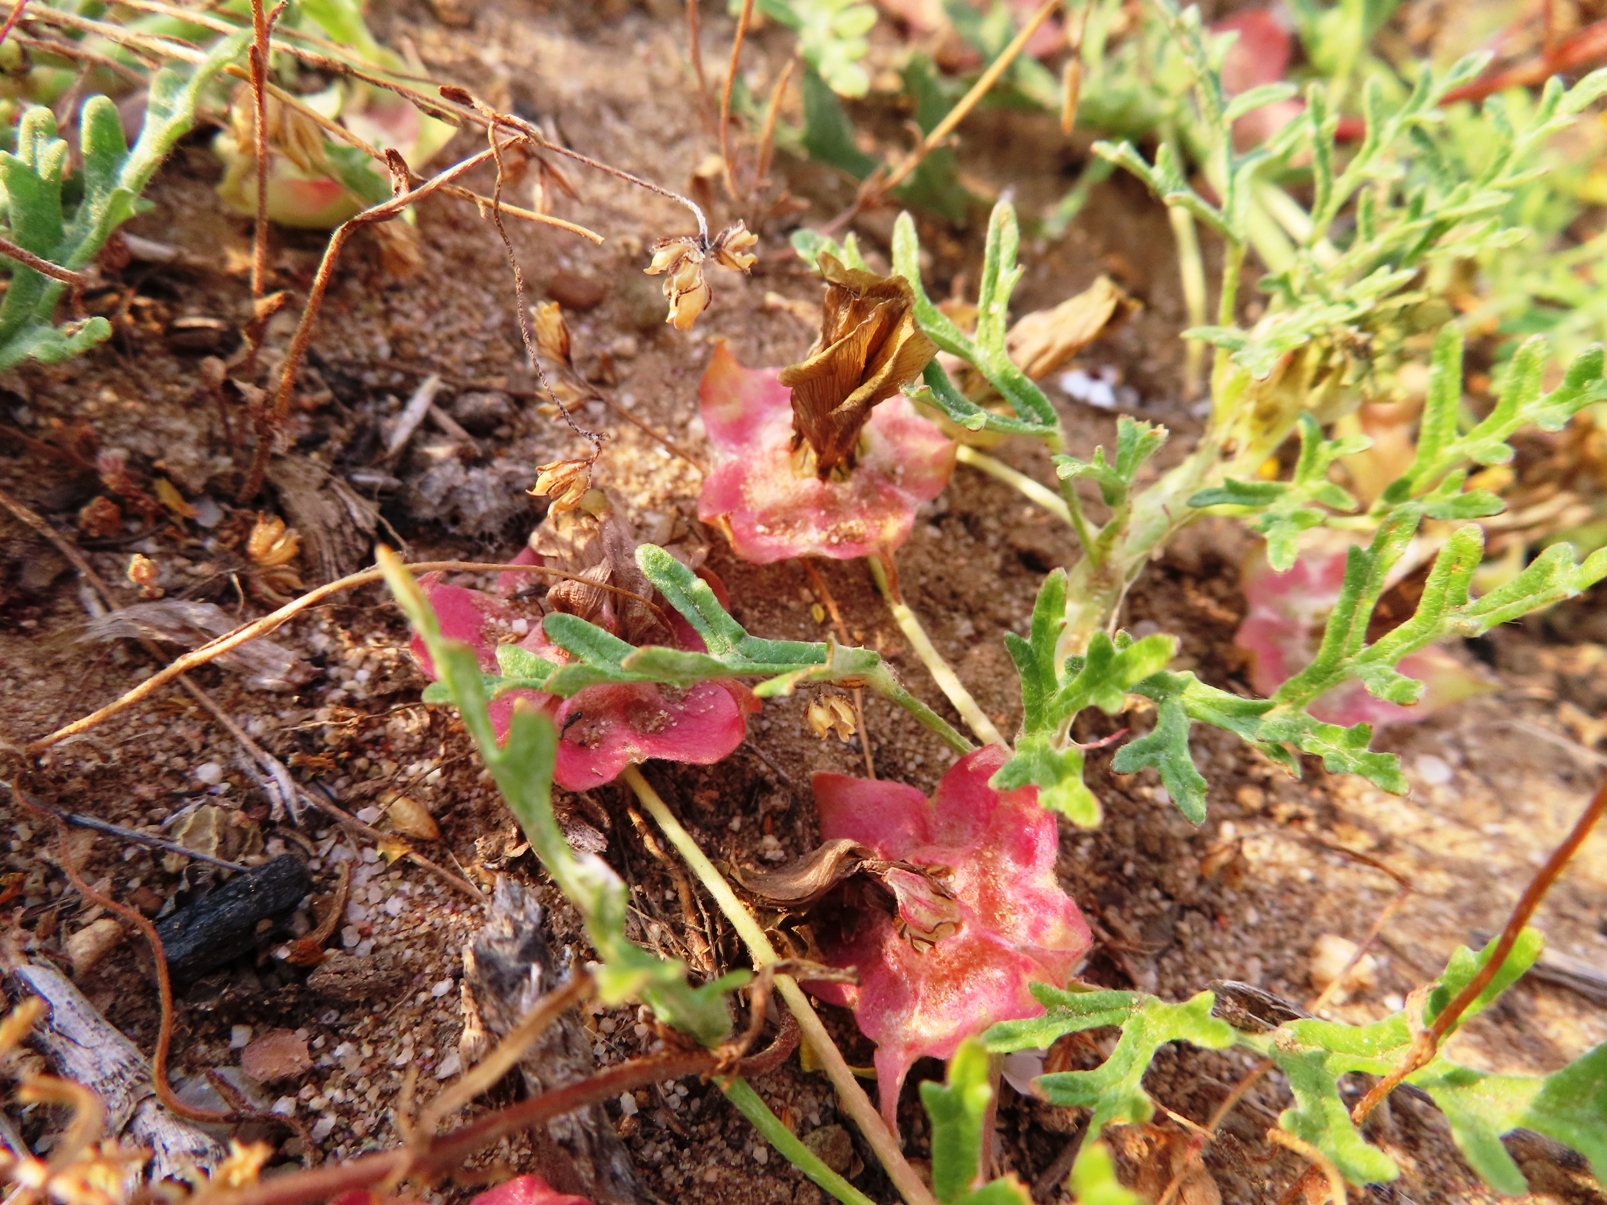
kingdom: Plantae
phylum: Tracheophyta
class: Magnoliopsida
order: Malvales
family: Neuradaceae
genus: Grielum
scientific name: Grielum humifusum
